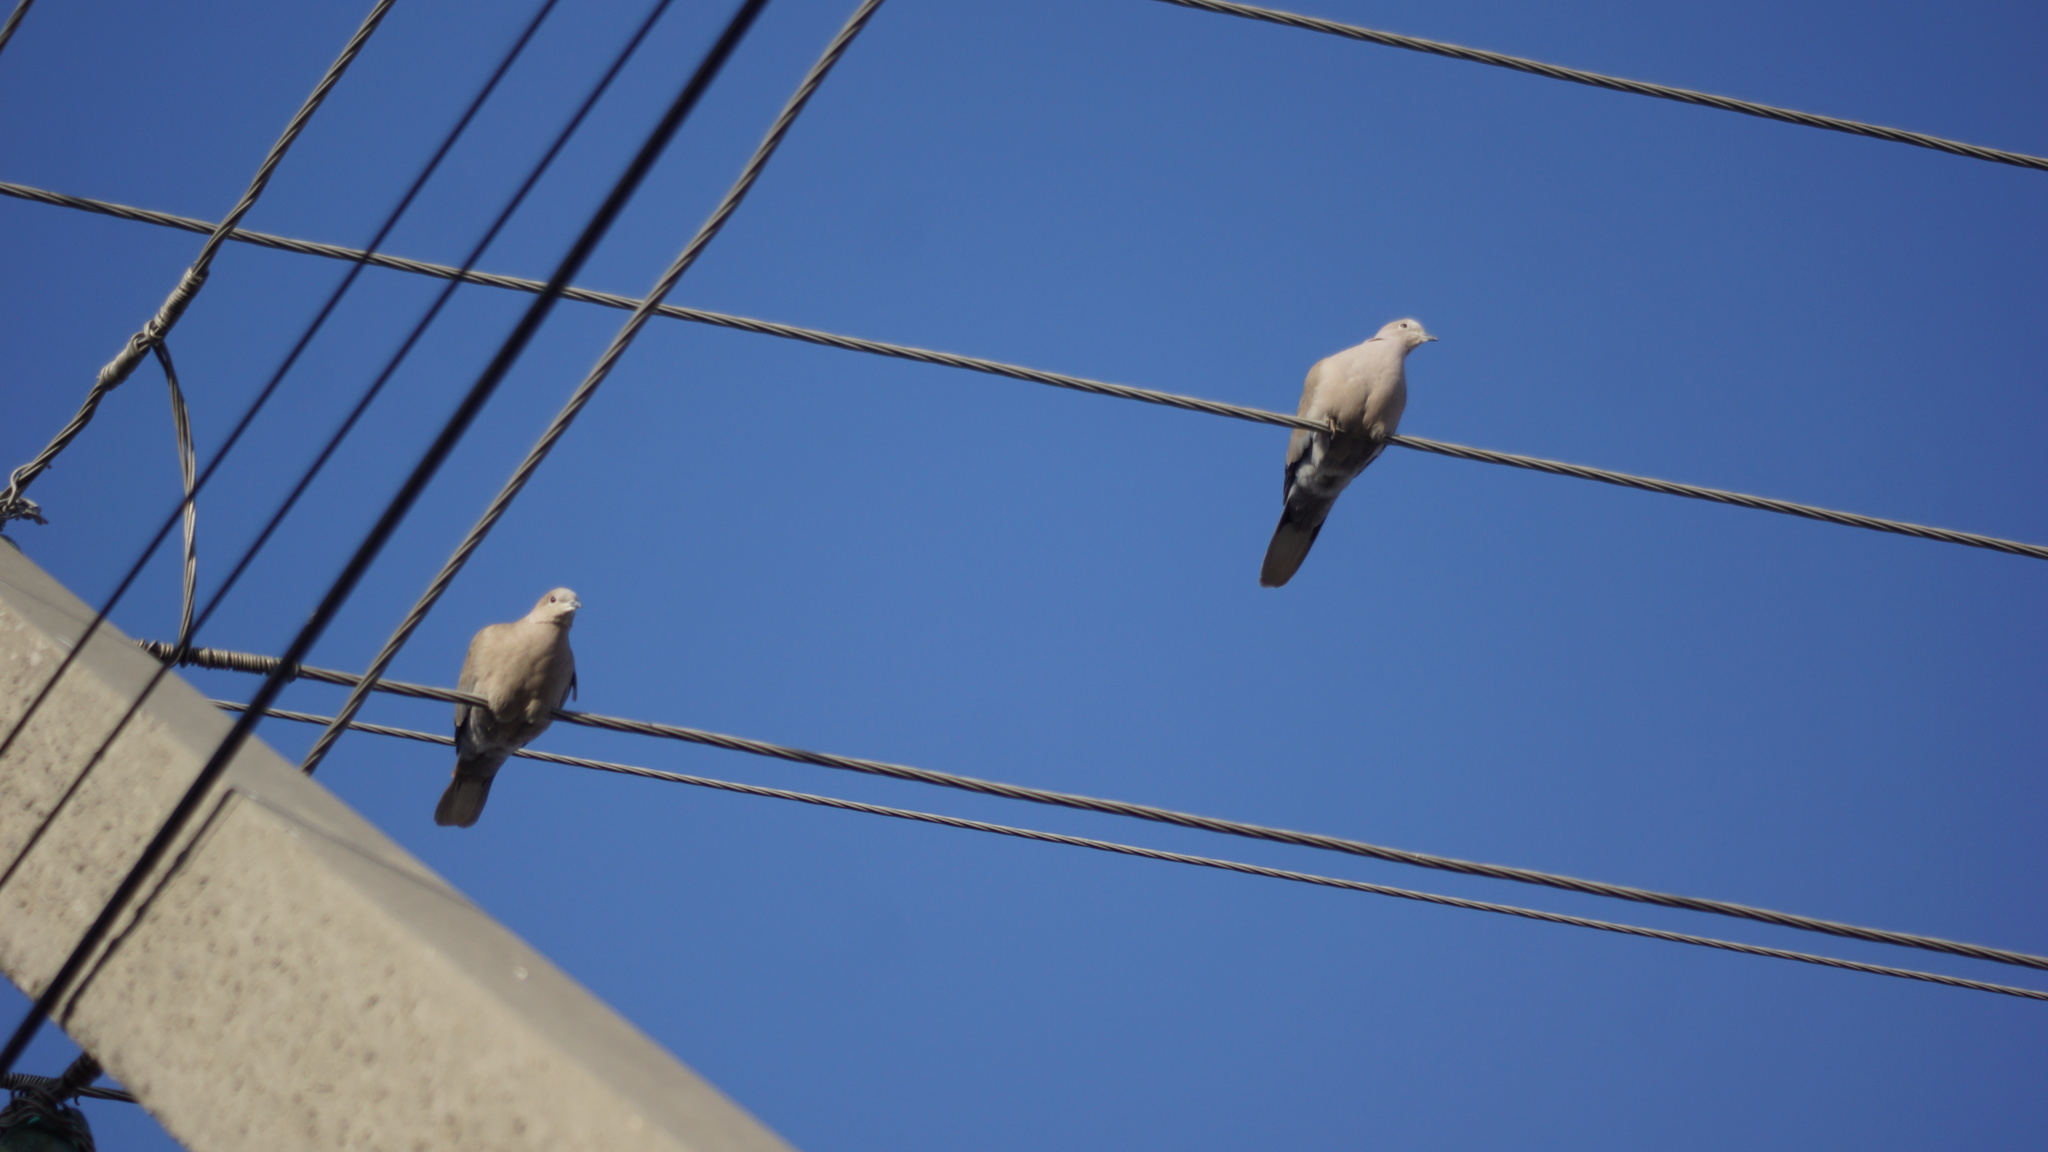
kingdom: Animalia
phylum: Chordata
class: Aves
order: Columbiformes
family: Columbidae
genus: Streptopelia
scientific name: Streptopelia decaocto
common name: Eurasian collared dove
